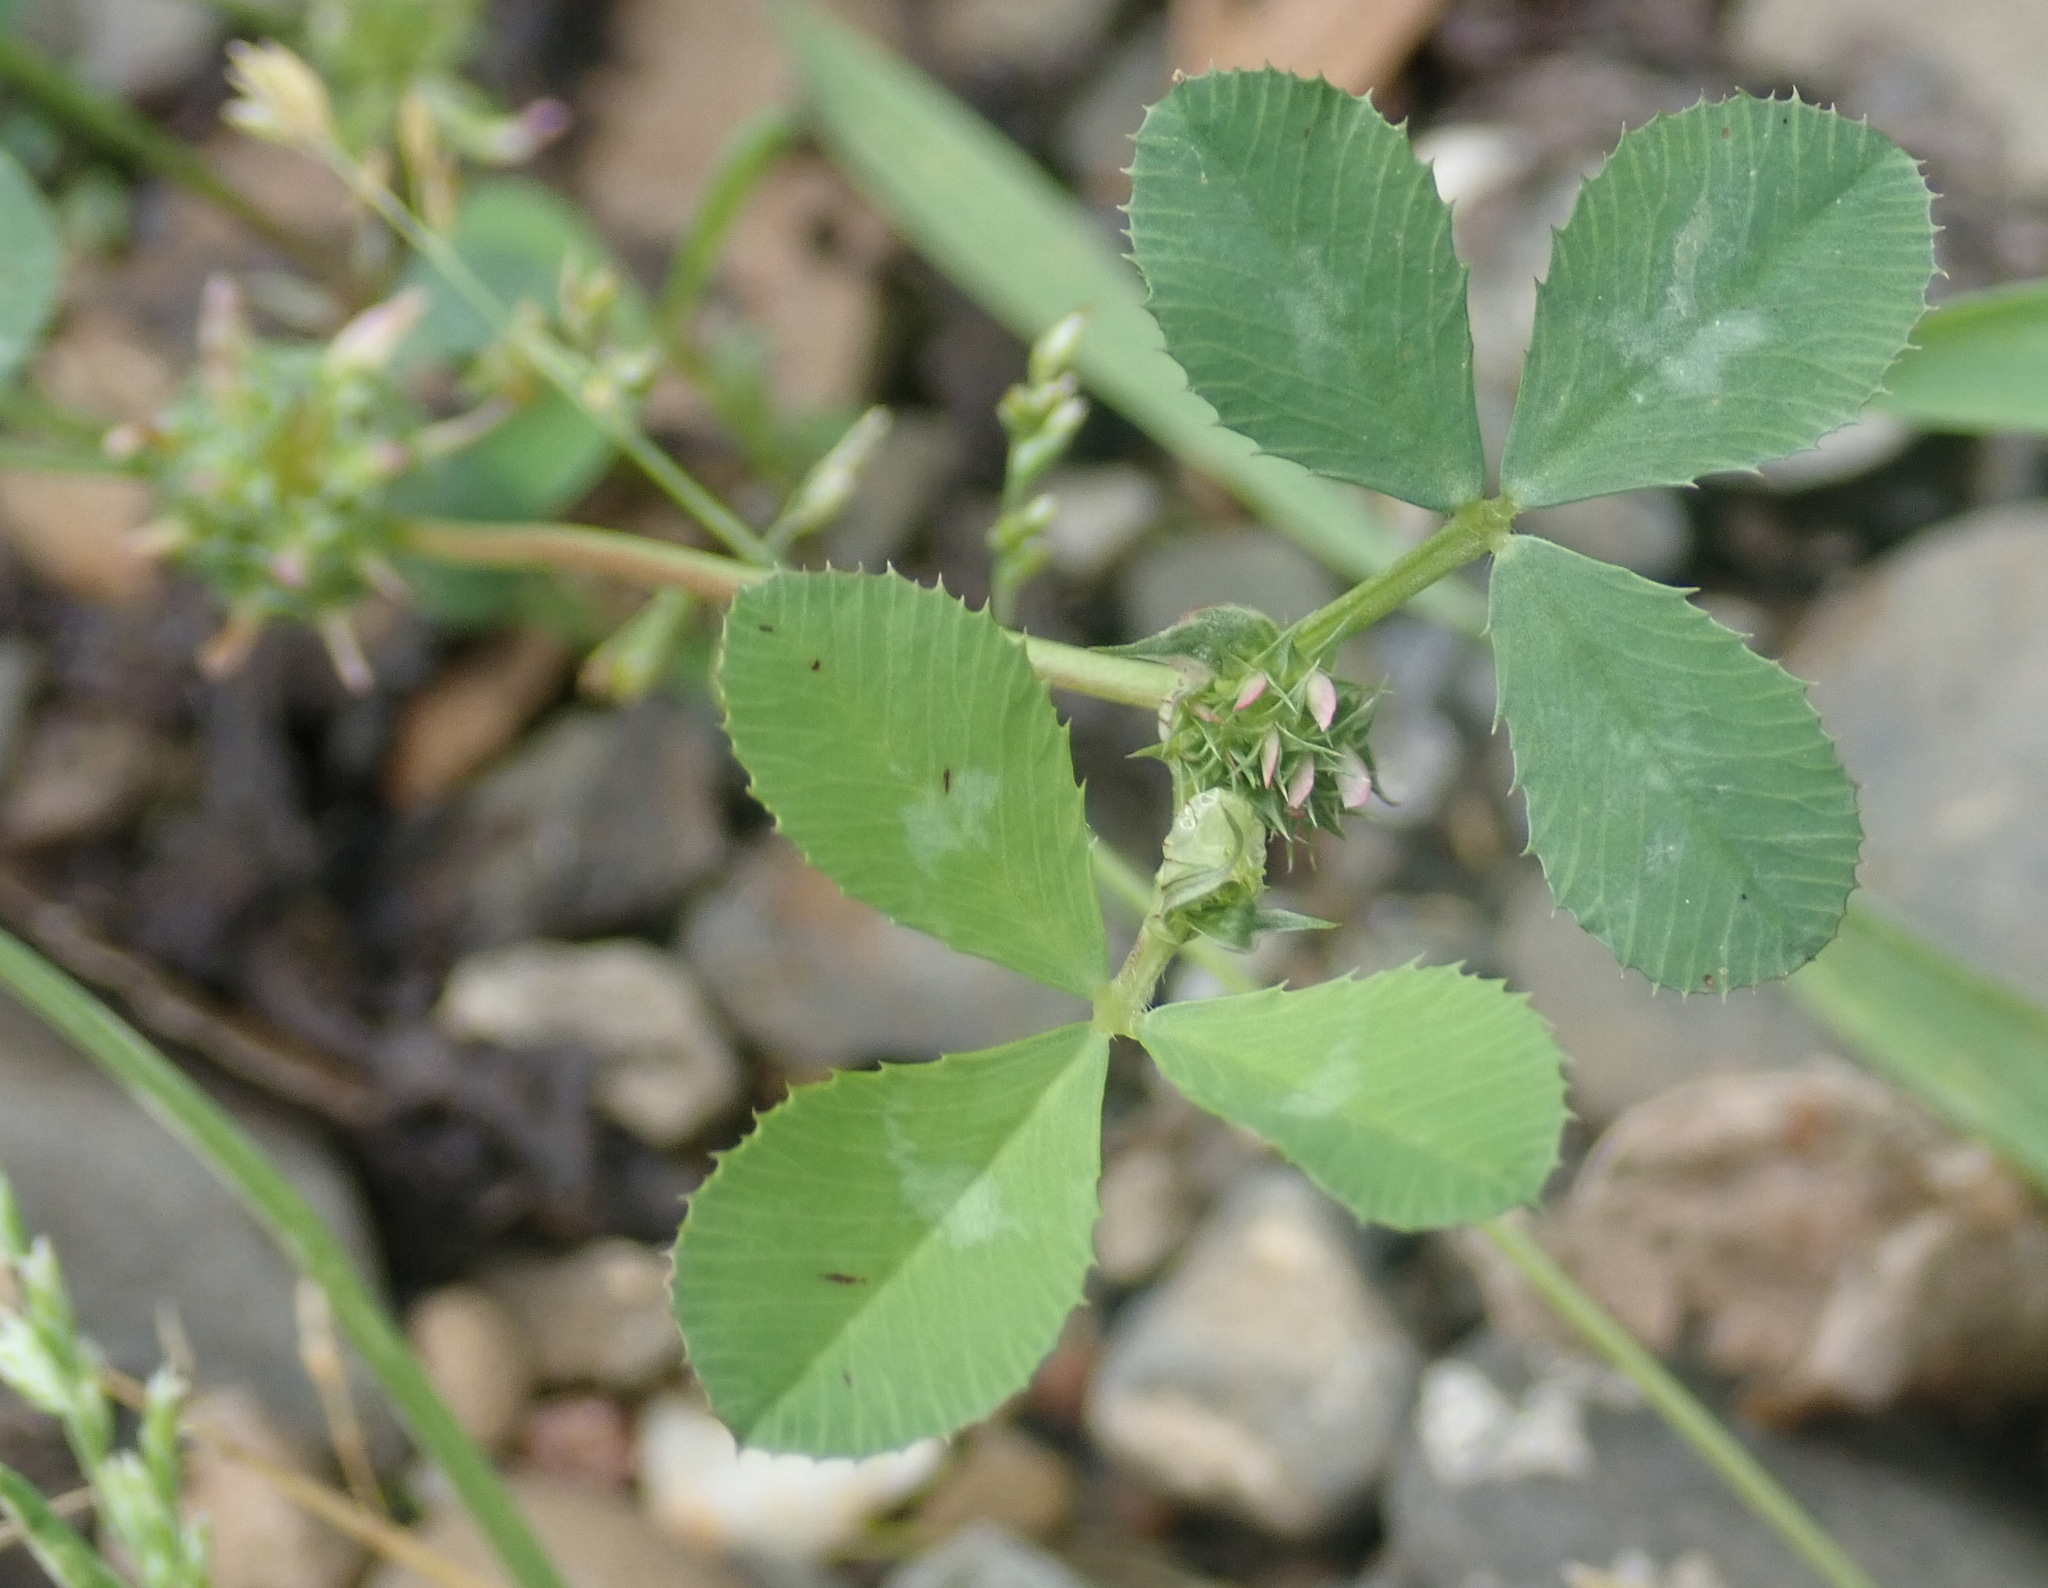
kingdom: Plantae
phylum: Tracheophyta
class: Magnoliopsida
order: Fabales
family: Fabaceae
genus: Trifolium
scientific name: Trifolium glomeratum
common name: Clustered clover
